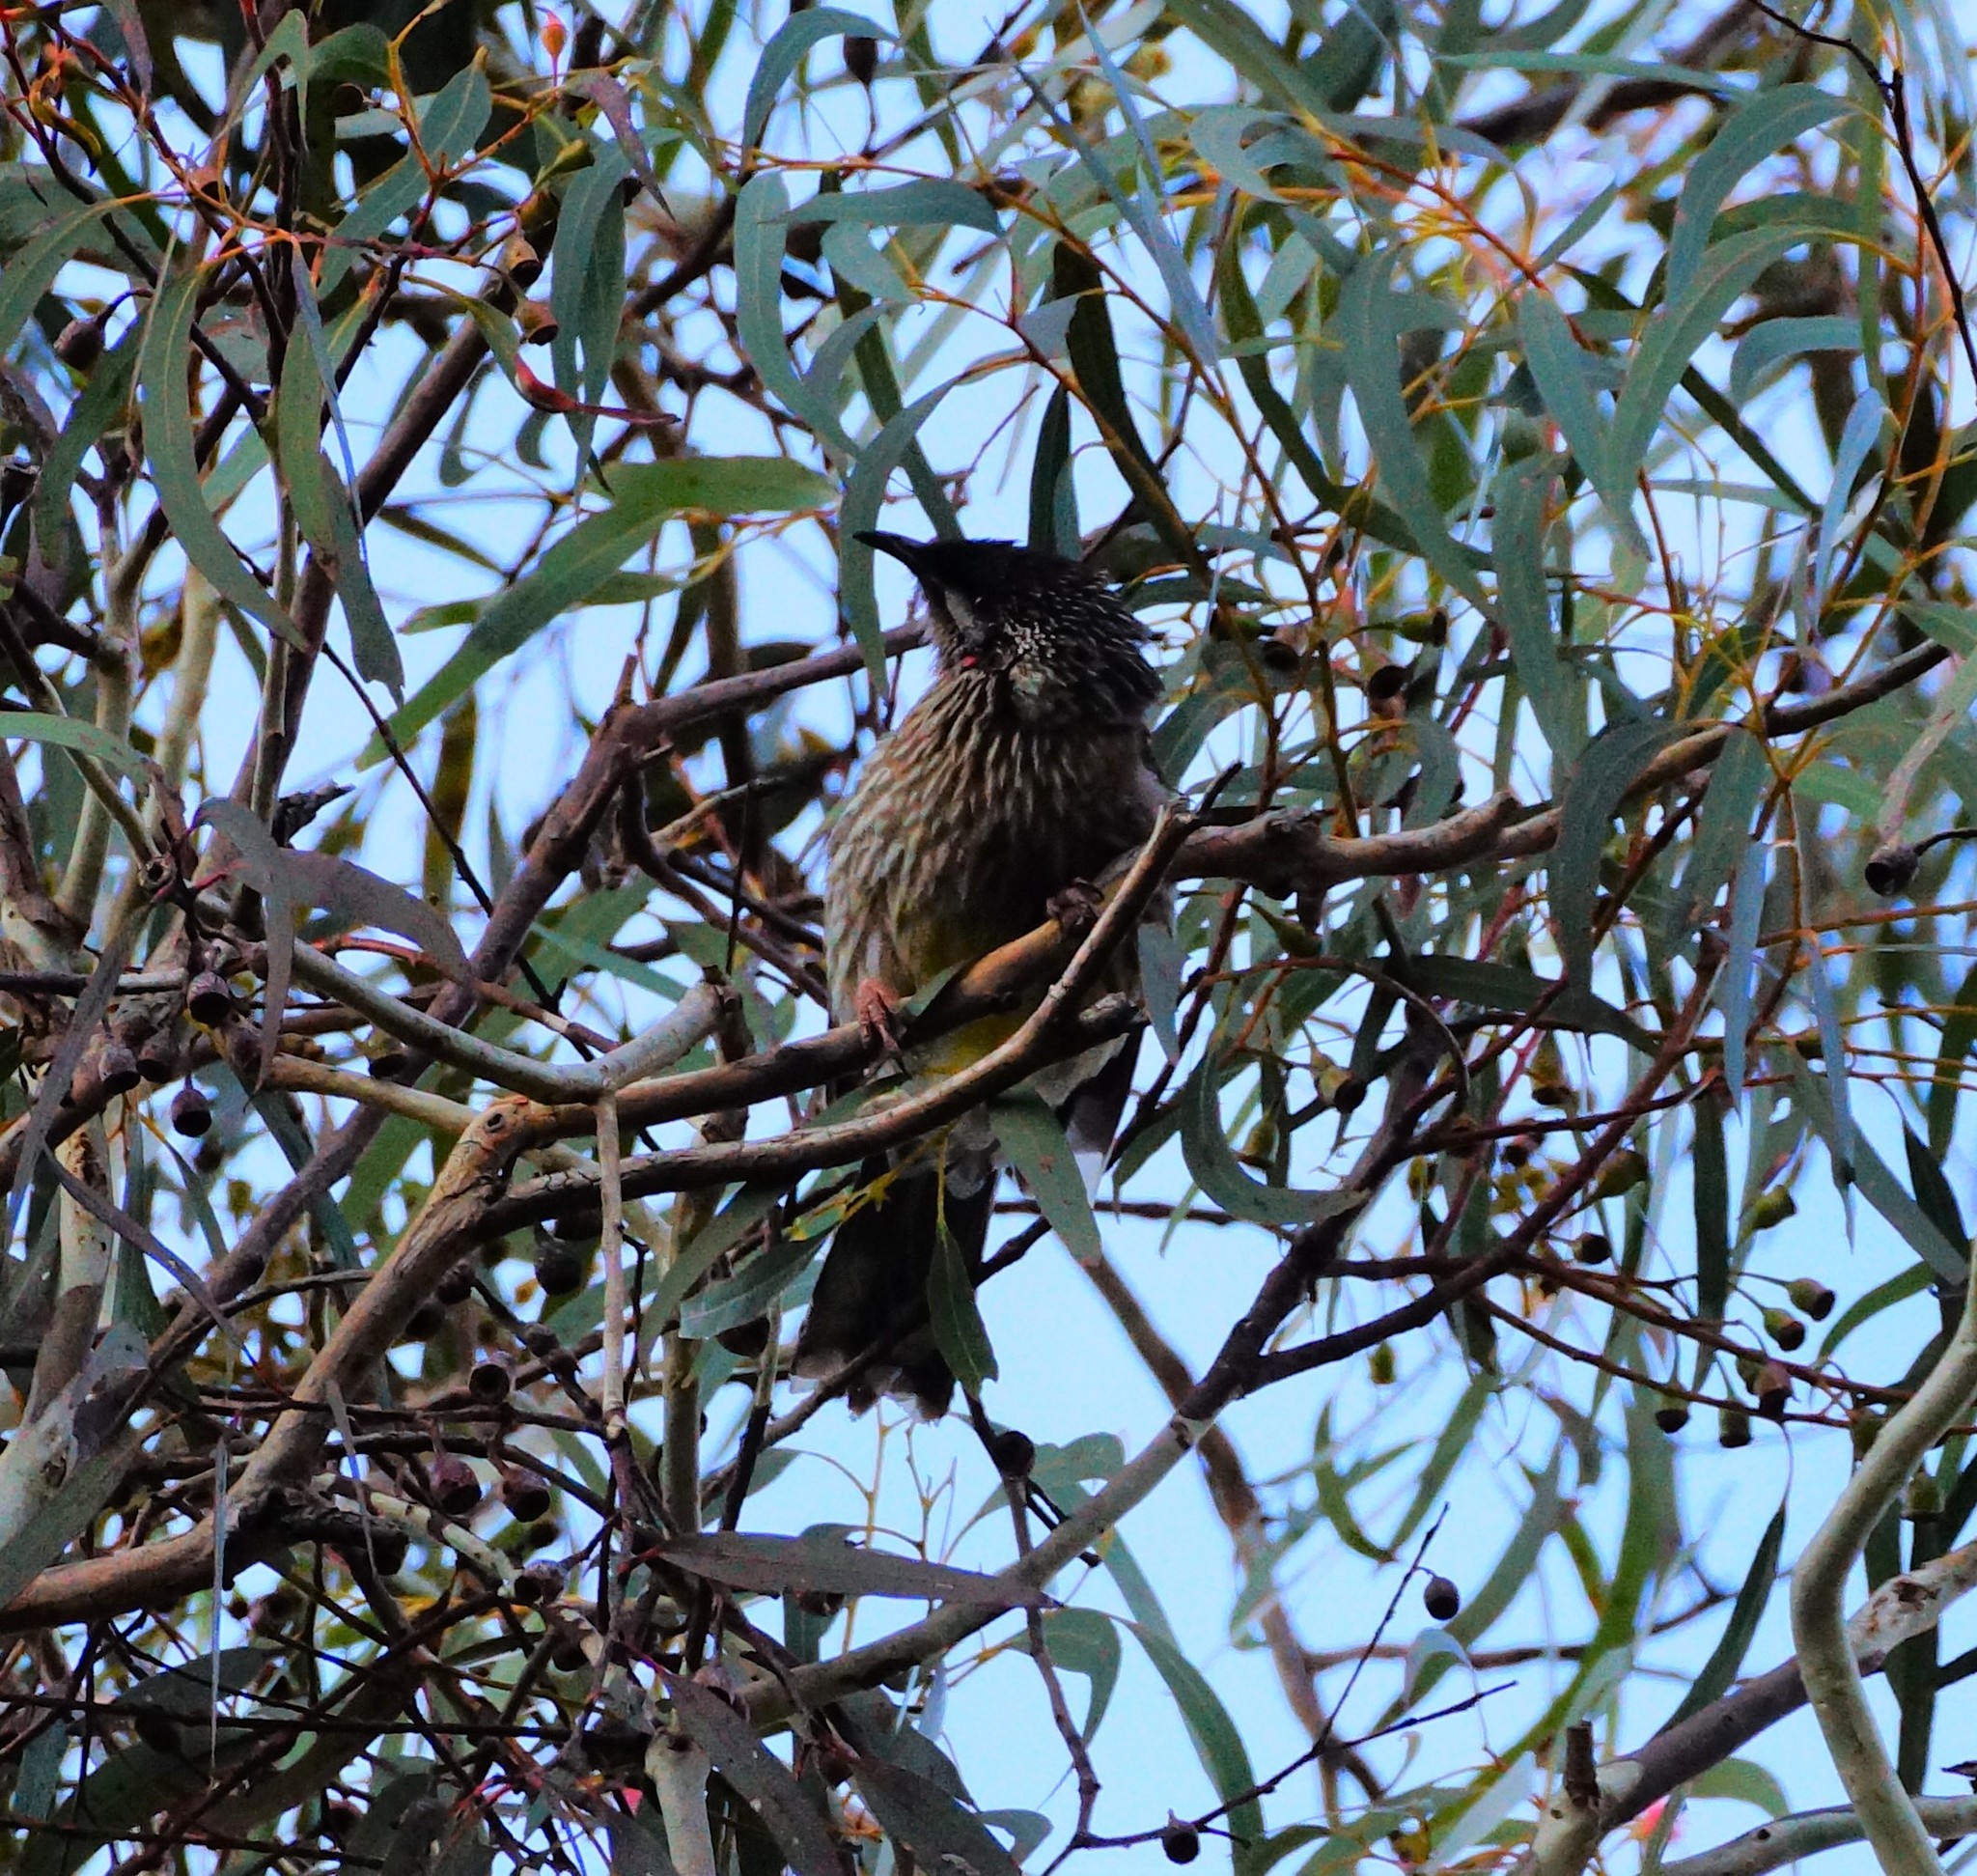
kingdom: Animalia
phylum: Chordata
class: Aves
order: Passeriformes
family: Meliphagidae
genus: Anthochaera
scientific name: Anthochaera carunculata
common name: Red wattlebird
